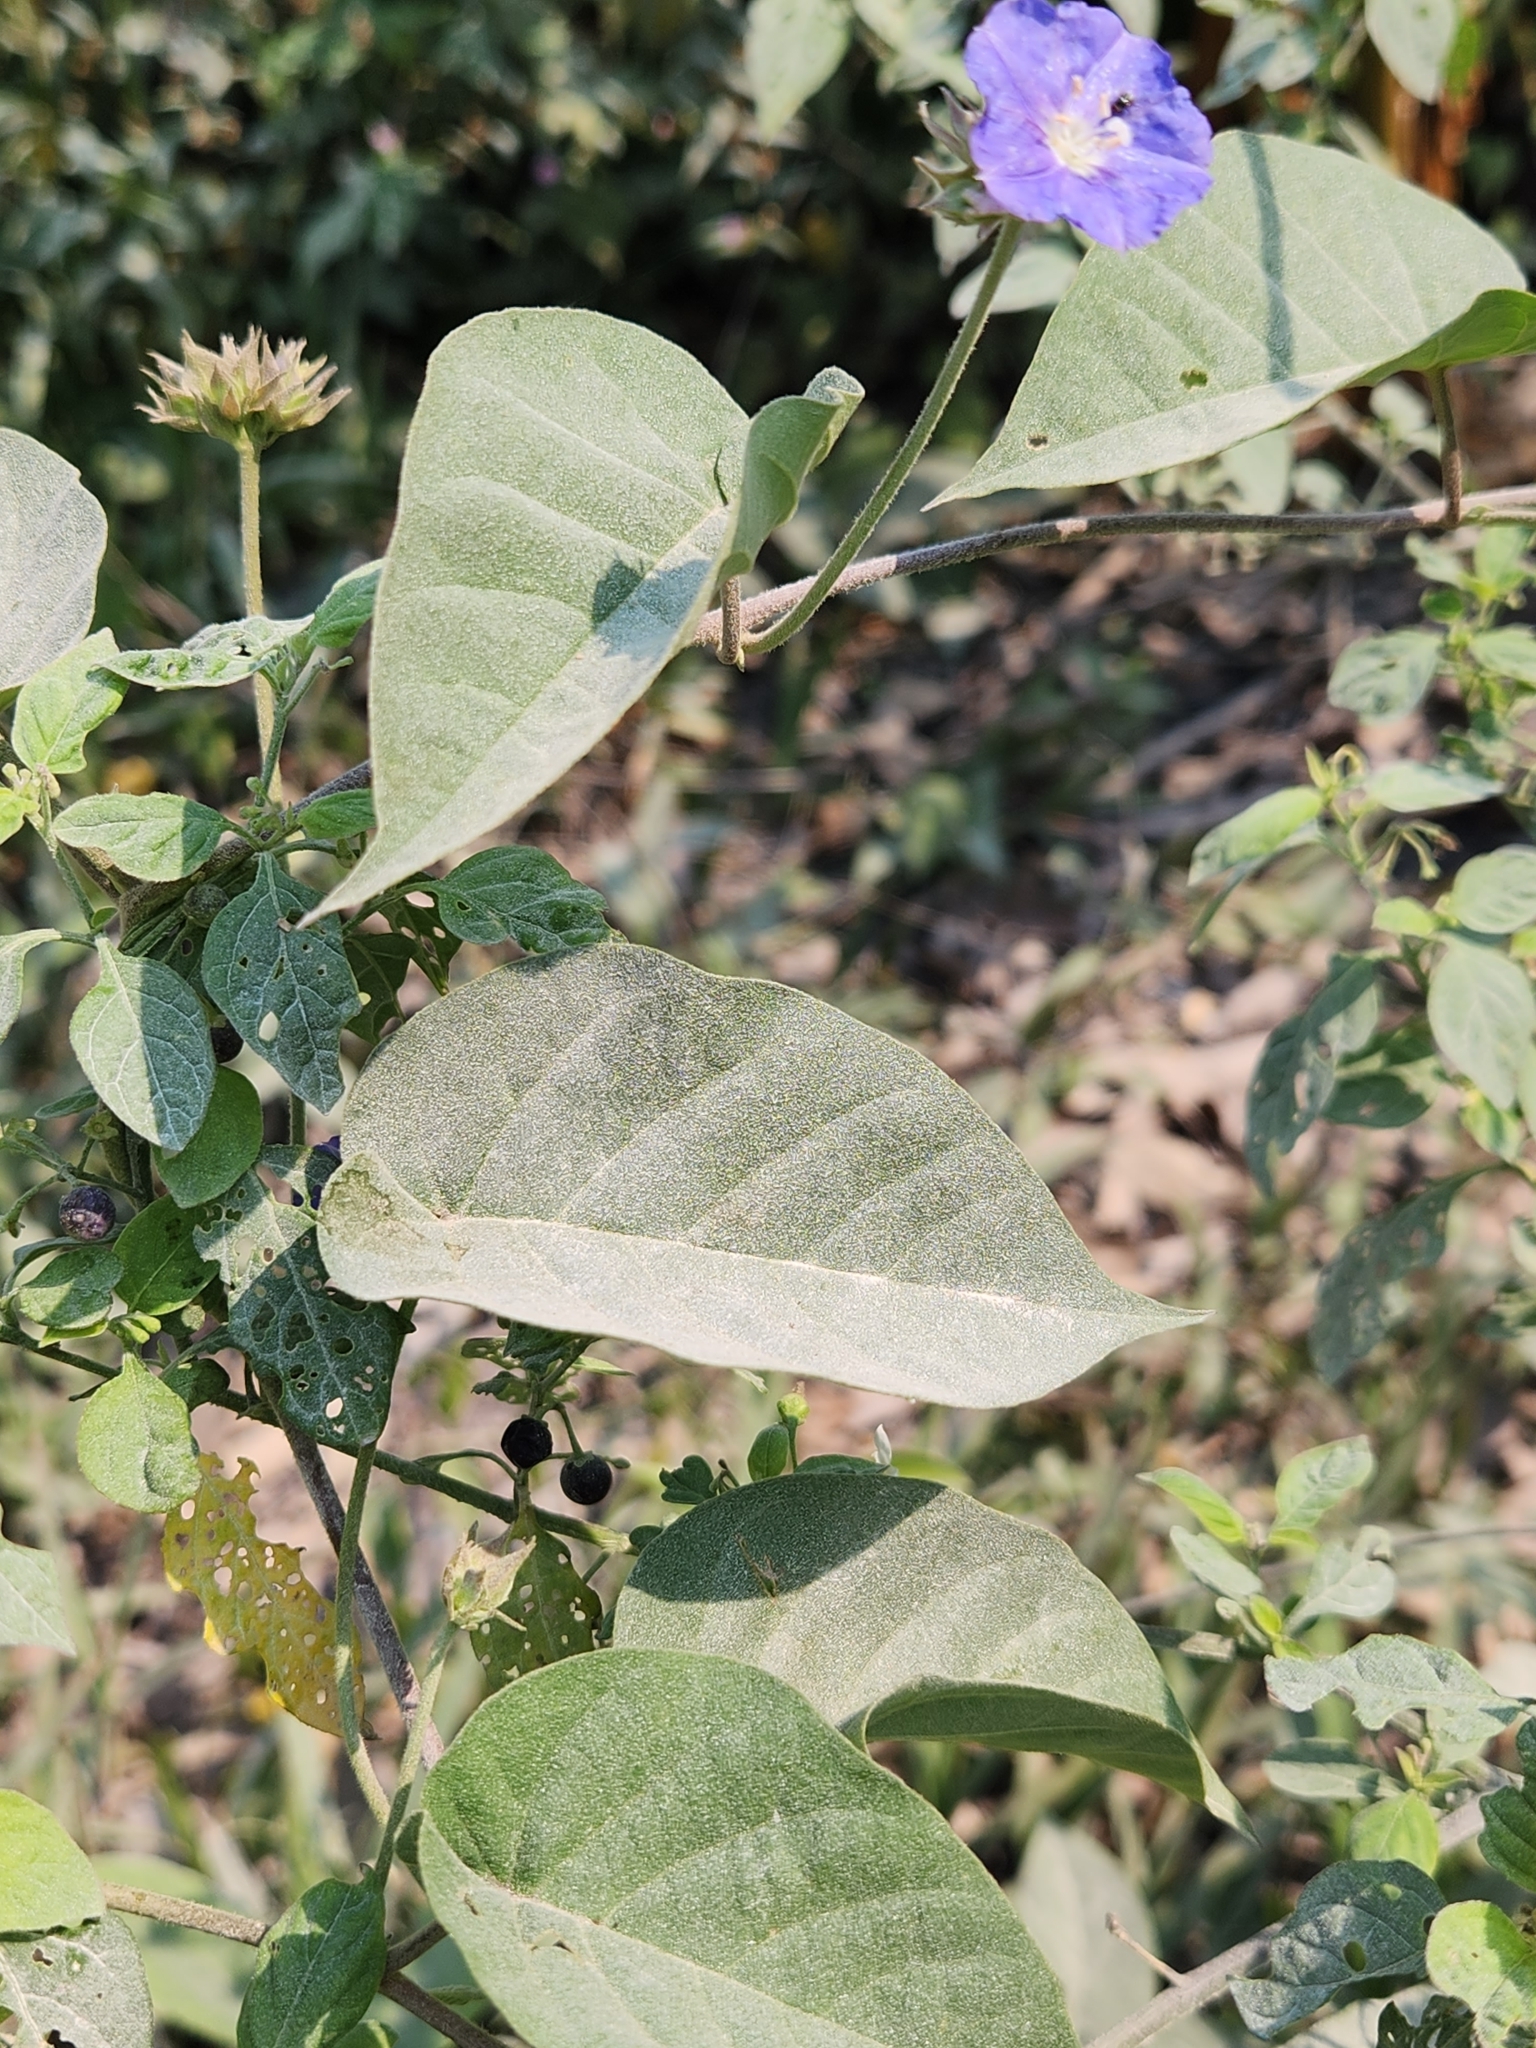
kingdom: Plantae
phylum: Tracheophyta
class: Magnoliopsida
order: Solanales
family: Convolvulaceae
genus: Jacquemontia
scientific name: Jacquemontia pentanthos
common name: Skyblue clustervine
